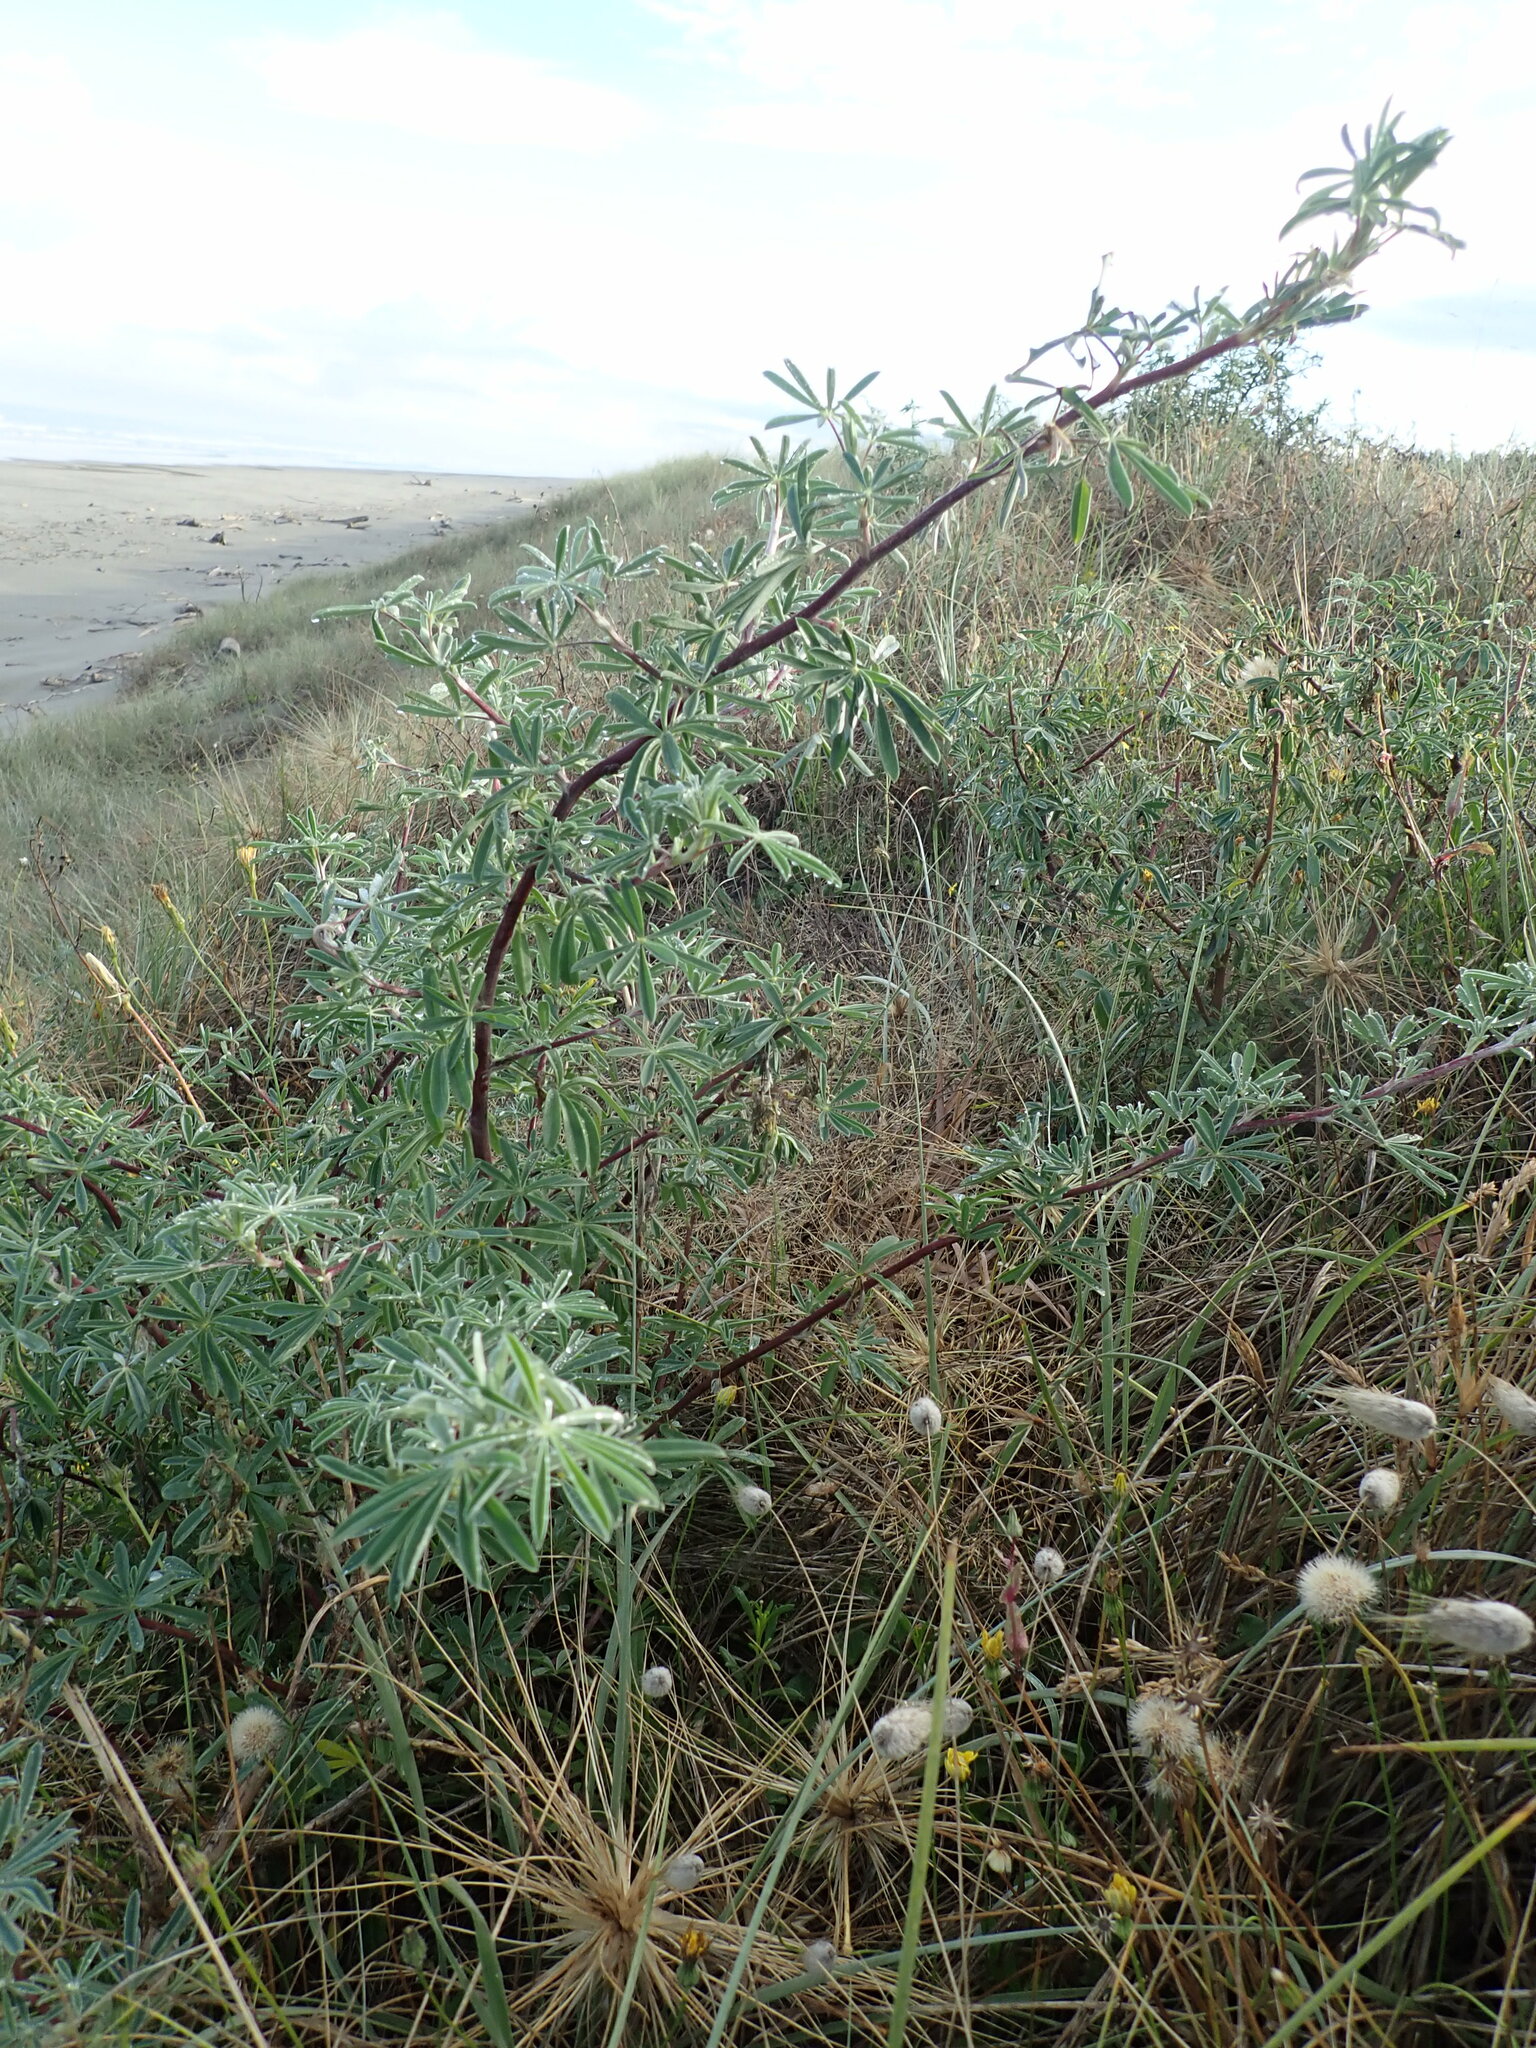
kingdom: Plantae
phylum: Tracheophyta
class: Magnoliopsida
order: Fabales
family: Fabaceae
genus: Lupinus
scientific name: Lupinus arboreus
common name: Yellow bush lupine
